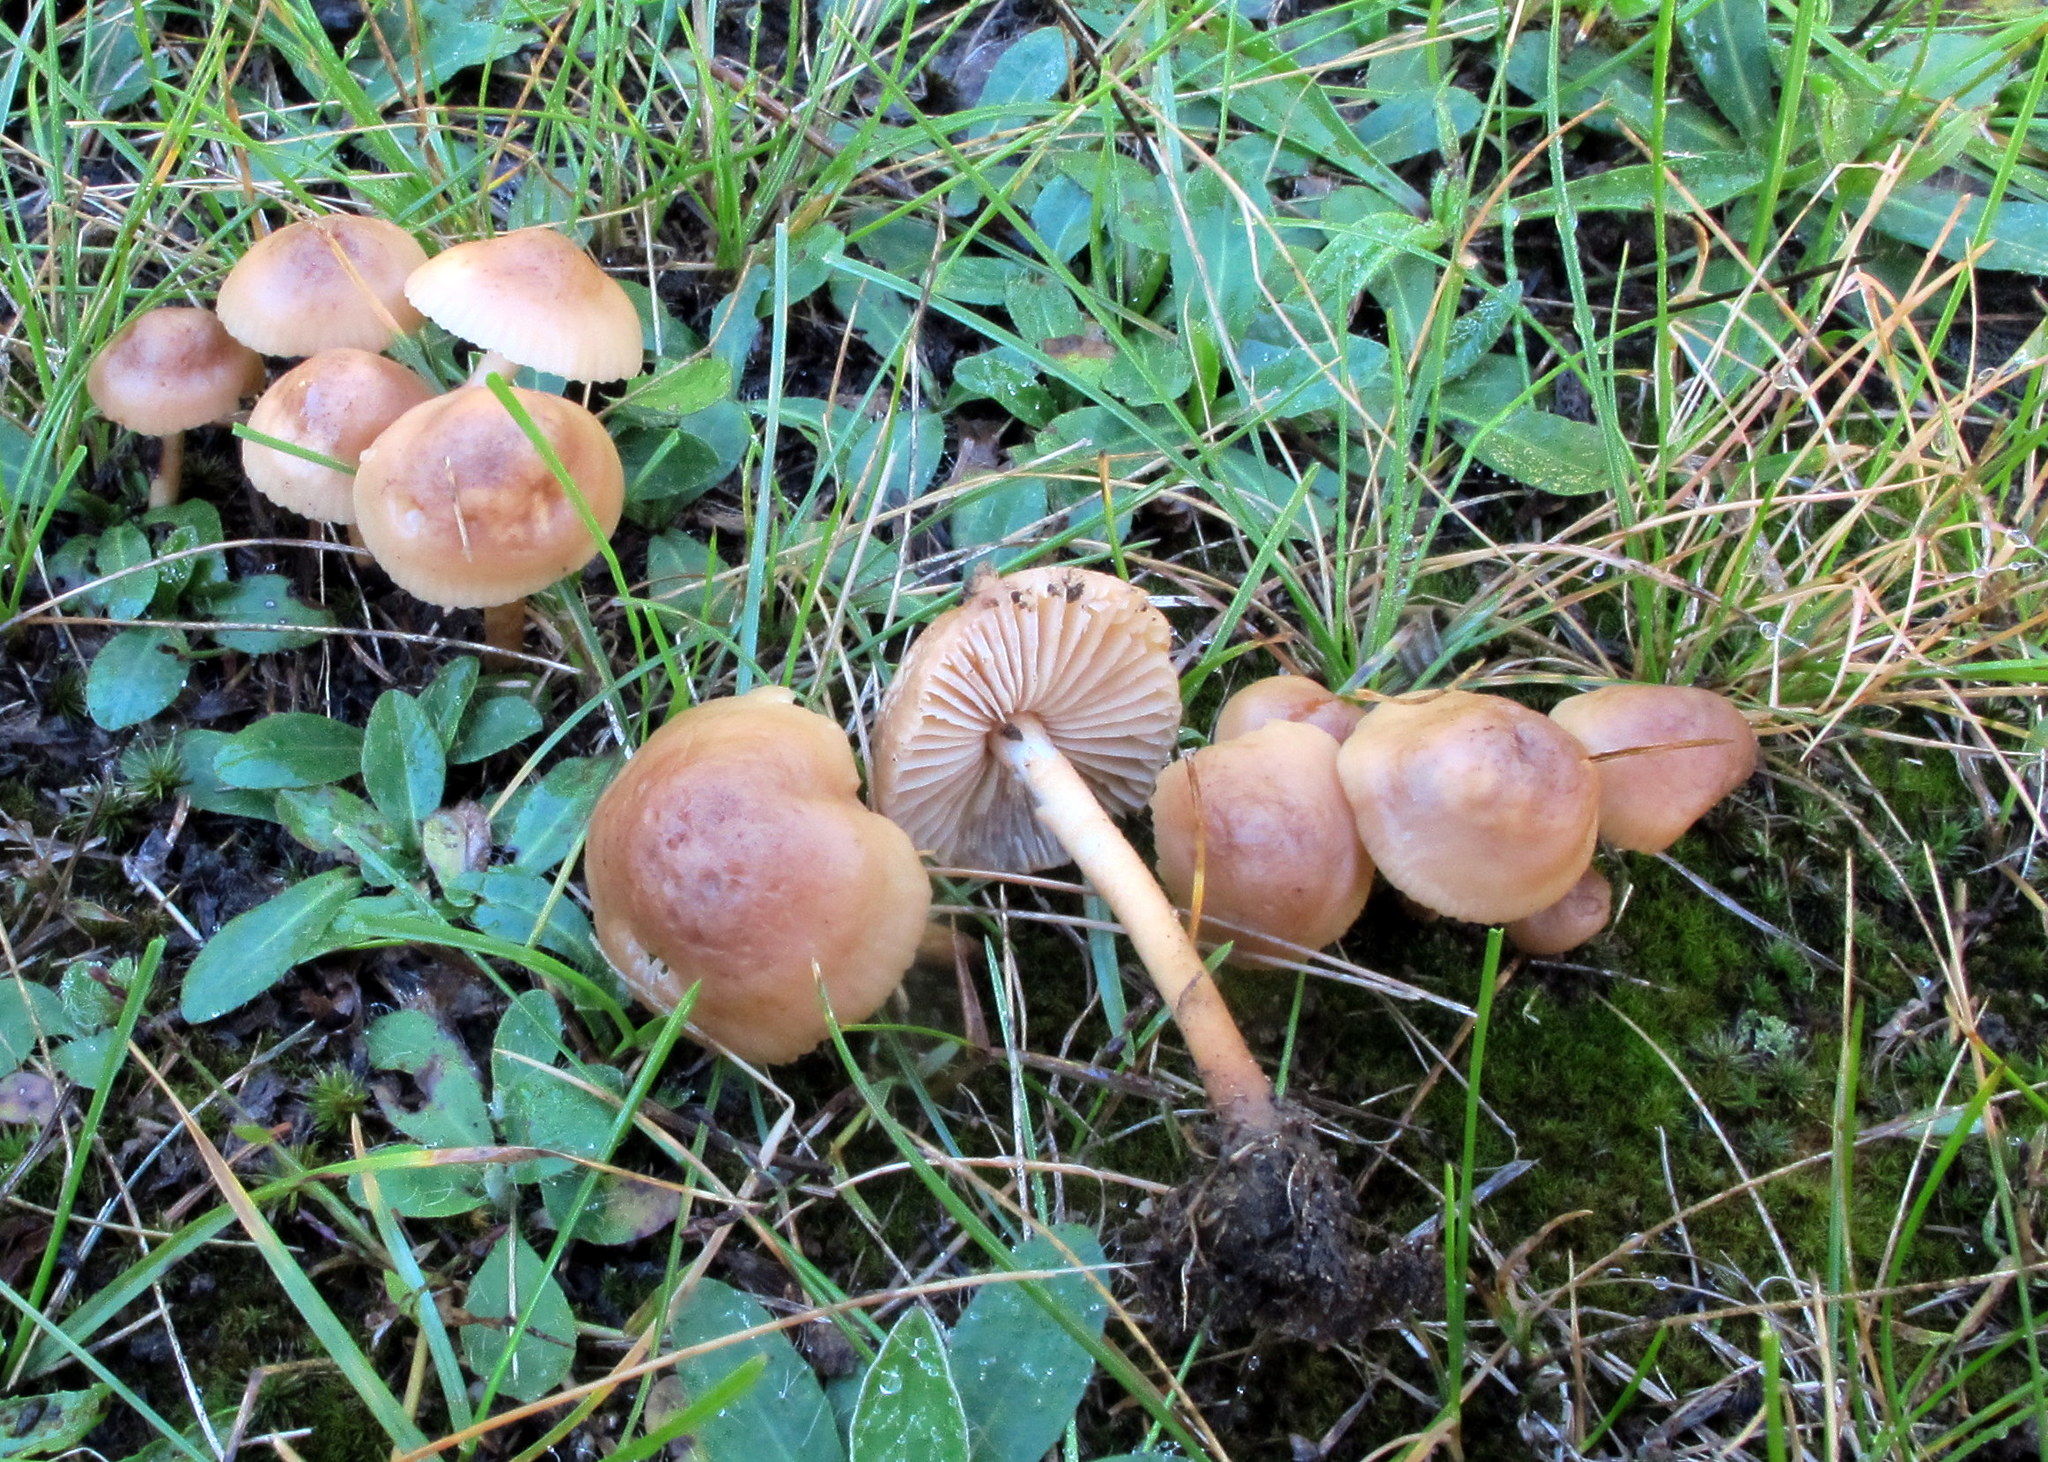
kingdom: Fungi
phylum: Basidiomycota
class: Agaricomycetes
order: Agaricales
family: Marasmiaceae
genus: Marasmius
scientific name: Marasmius oreades
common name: Fairy ring champignon
